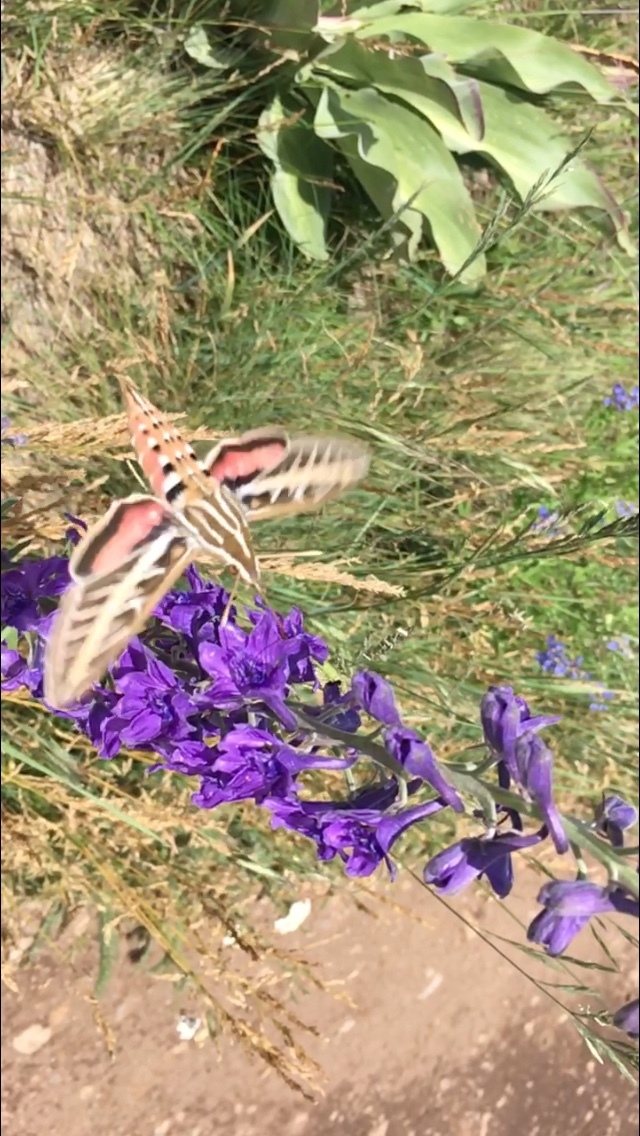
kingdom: Animalia
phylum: Arthropoda
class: Insecta
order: Lepidoptera
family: Sphingidae
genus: Hyles
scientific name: Hyles lineata
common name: White-lined sphinx
